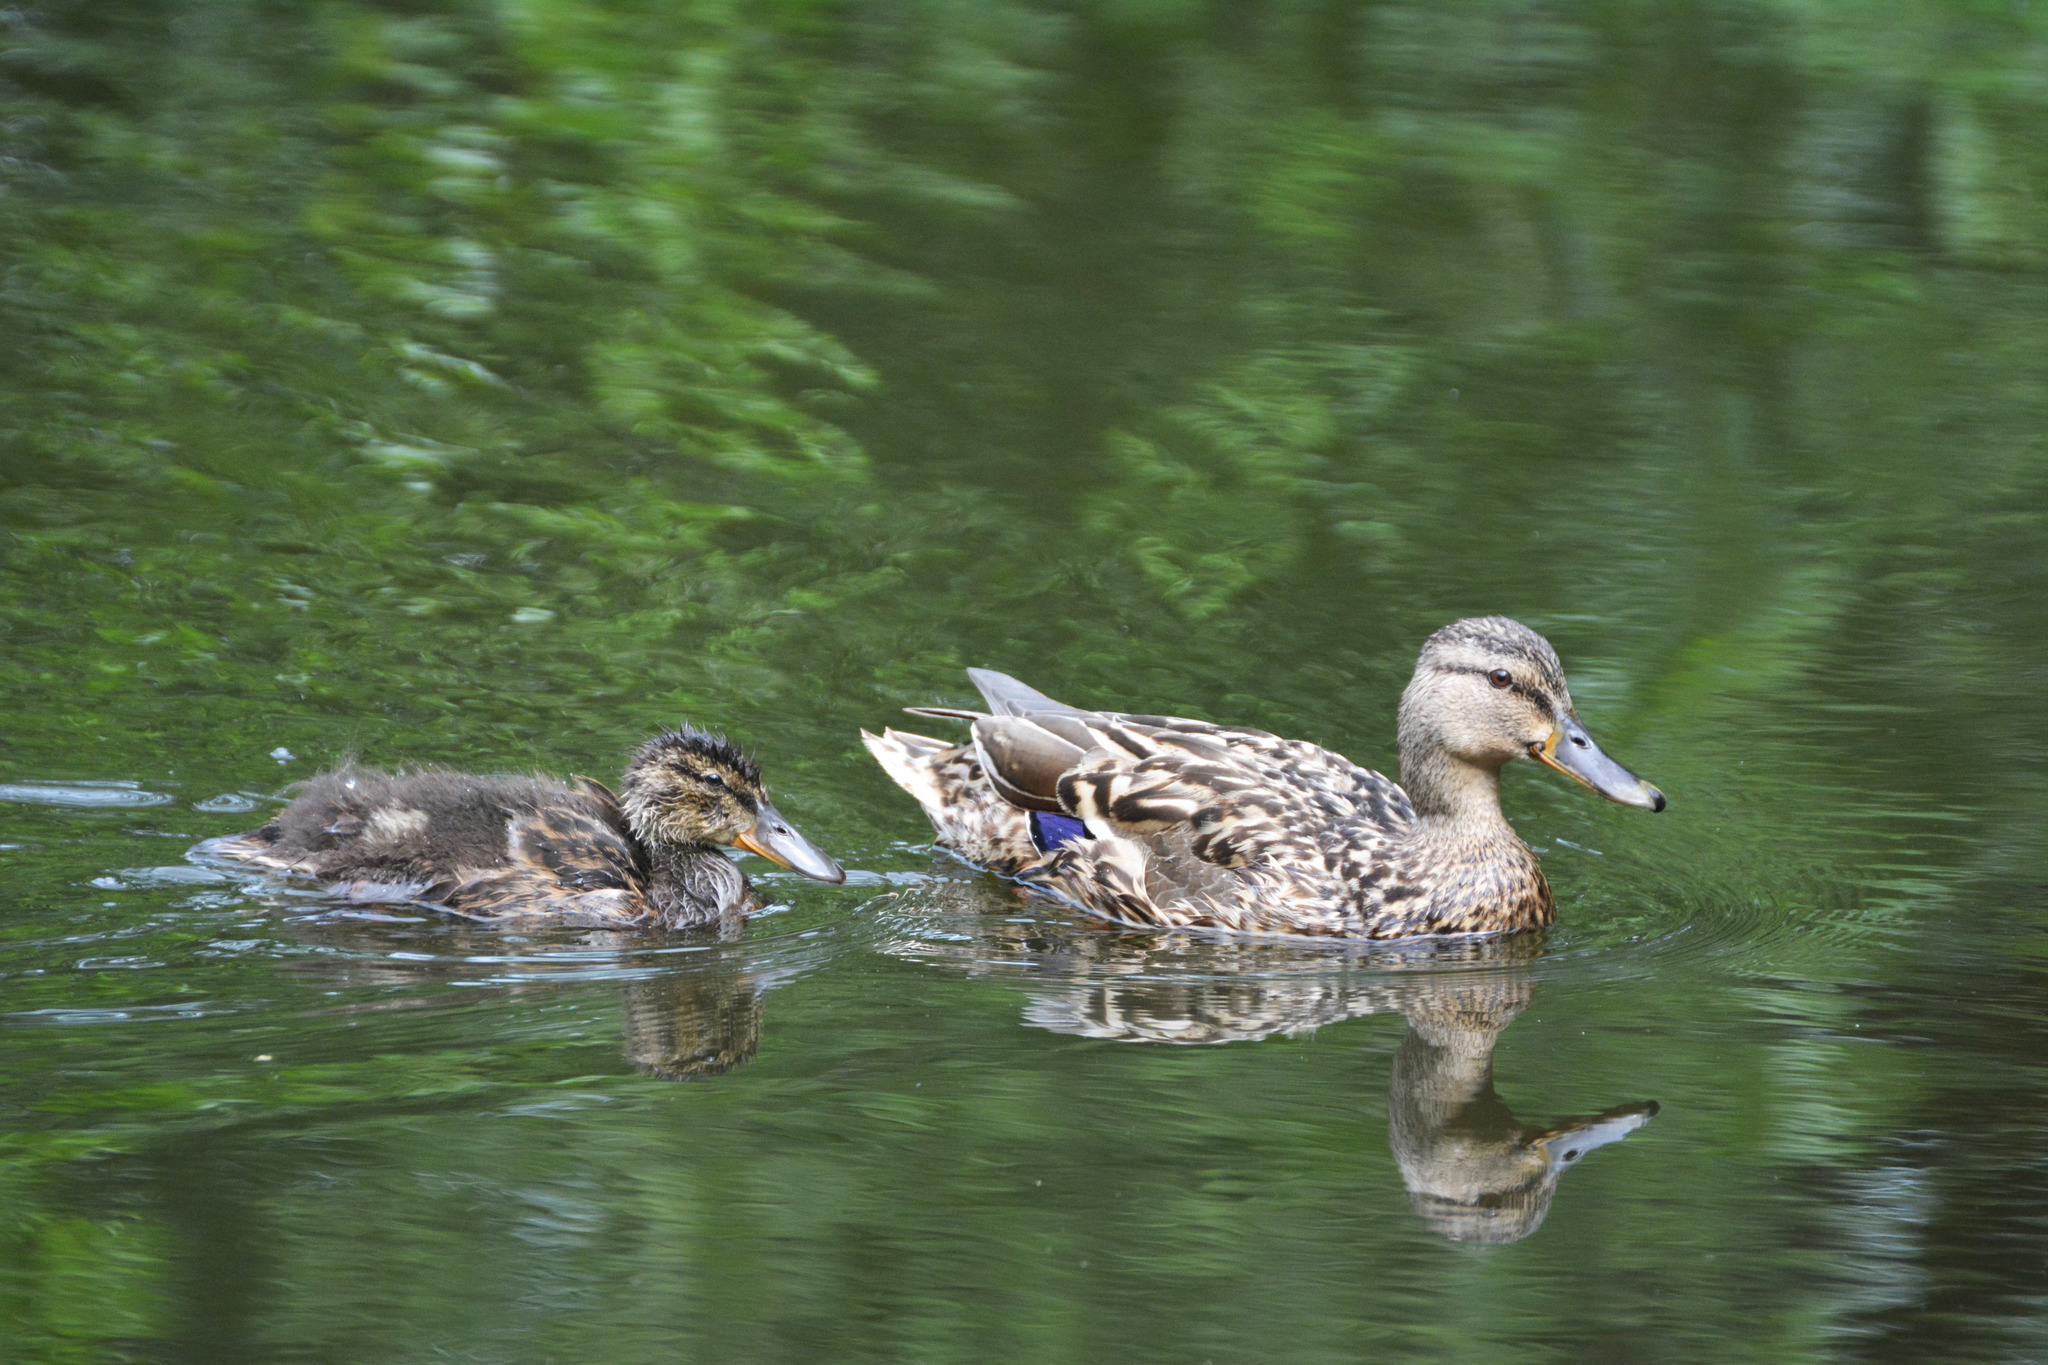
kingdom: Animalia
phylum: Chordata
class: Aves
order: Anseriformes
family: Anatidae
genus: Anas
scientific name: Anas platyrhynchos
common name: Mallard
